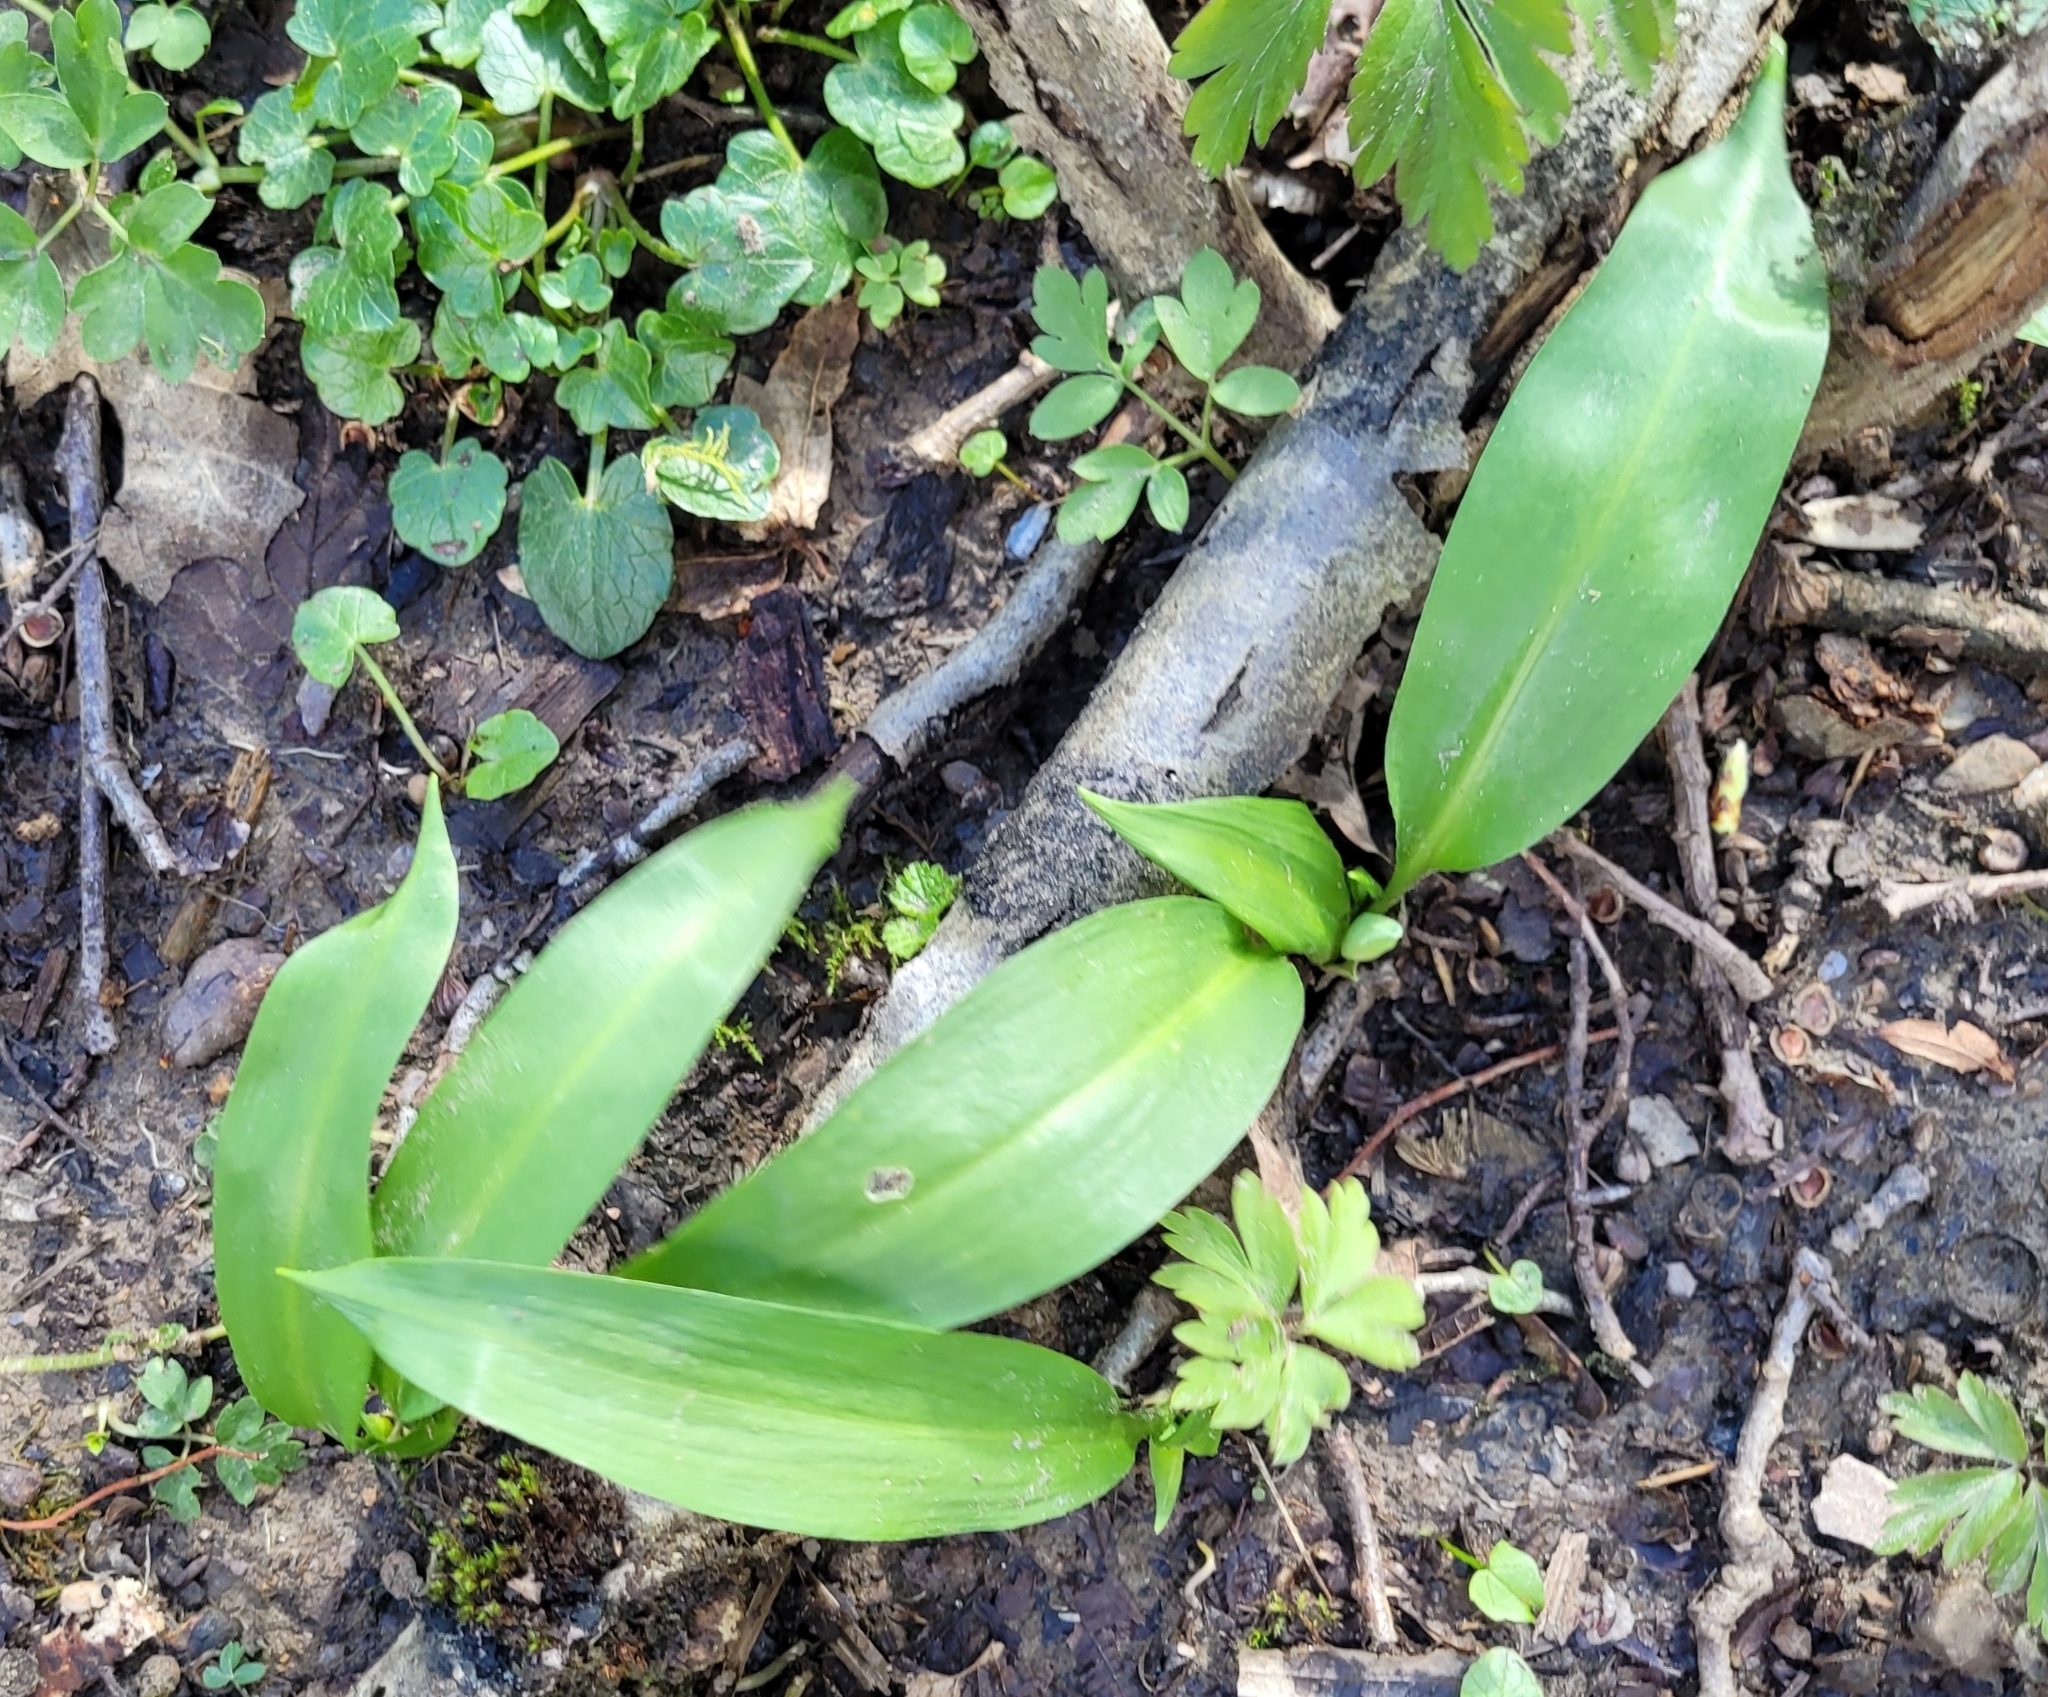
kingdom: Plantae
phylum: Tracheophyta
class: Liliopsida
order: Asparagales
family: Amaryllidaceae
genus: Allium
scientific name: Allium ursinum
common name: Ramsons
